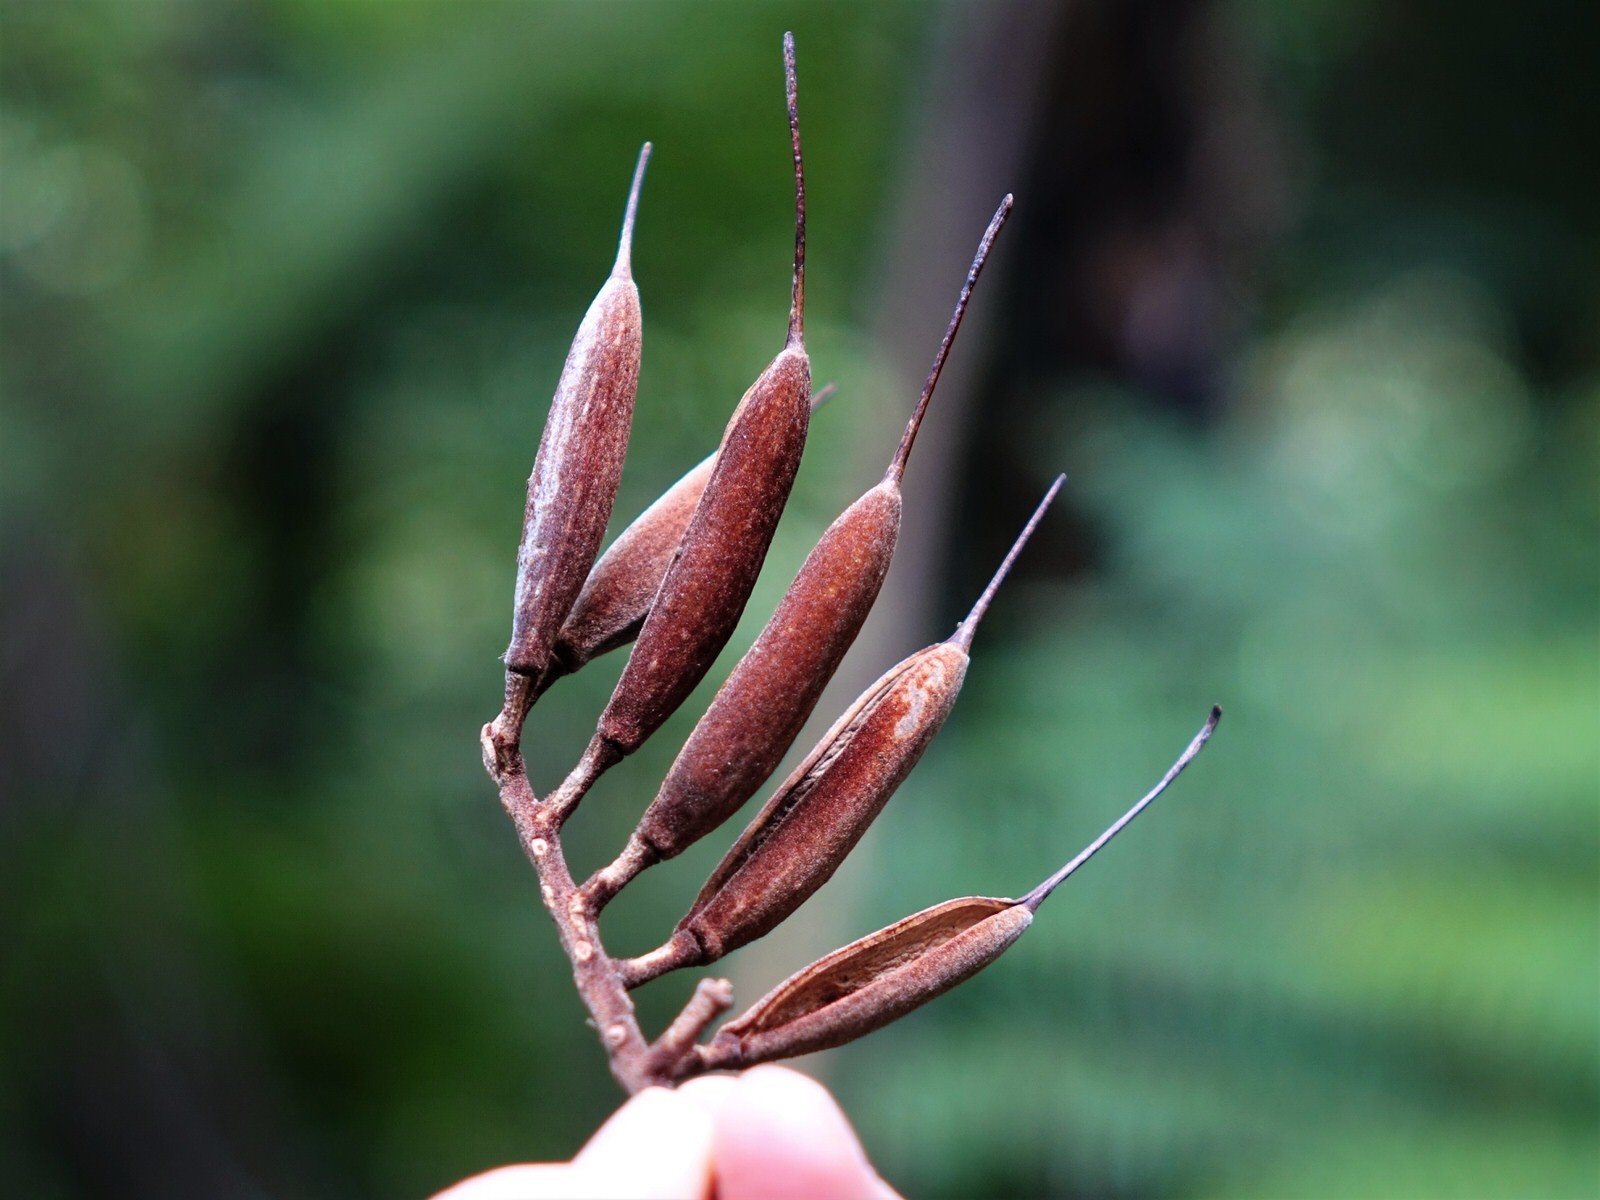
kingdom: Plantae
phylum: Tracheophyta
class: Magnoliopsida
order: Proteales
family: Proteaceae
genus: Knightia
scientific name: Knightia excelsa
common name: New zealand-honeysuckle
